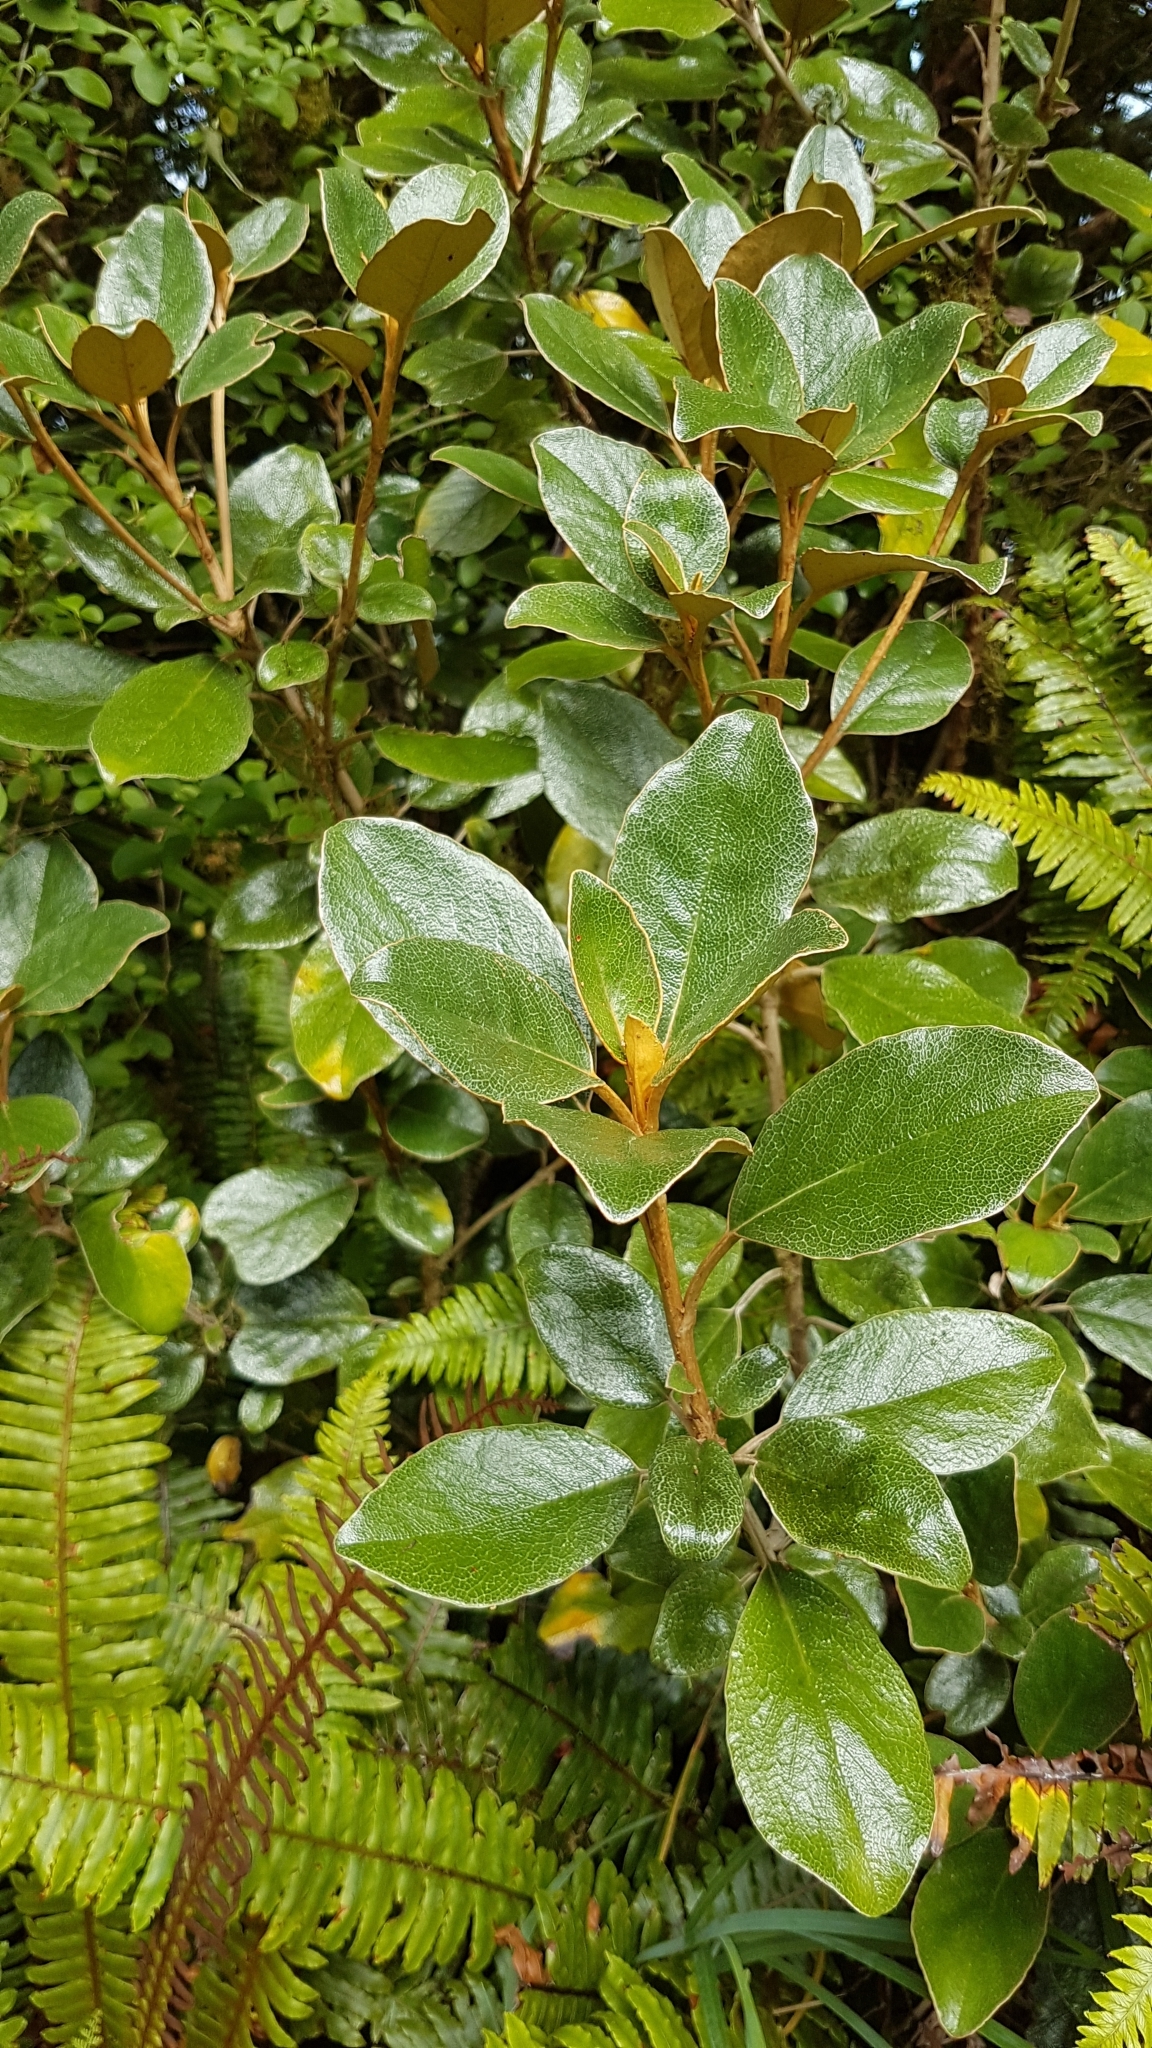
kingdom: Plantae
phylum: Tracheophyta
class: Magnoliopsida
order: Asterales
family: Asteraceae
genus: Brachyglottis
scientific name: Brachyglottis elaeagnifolia
